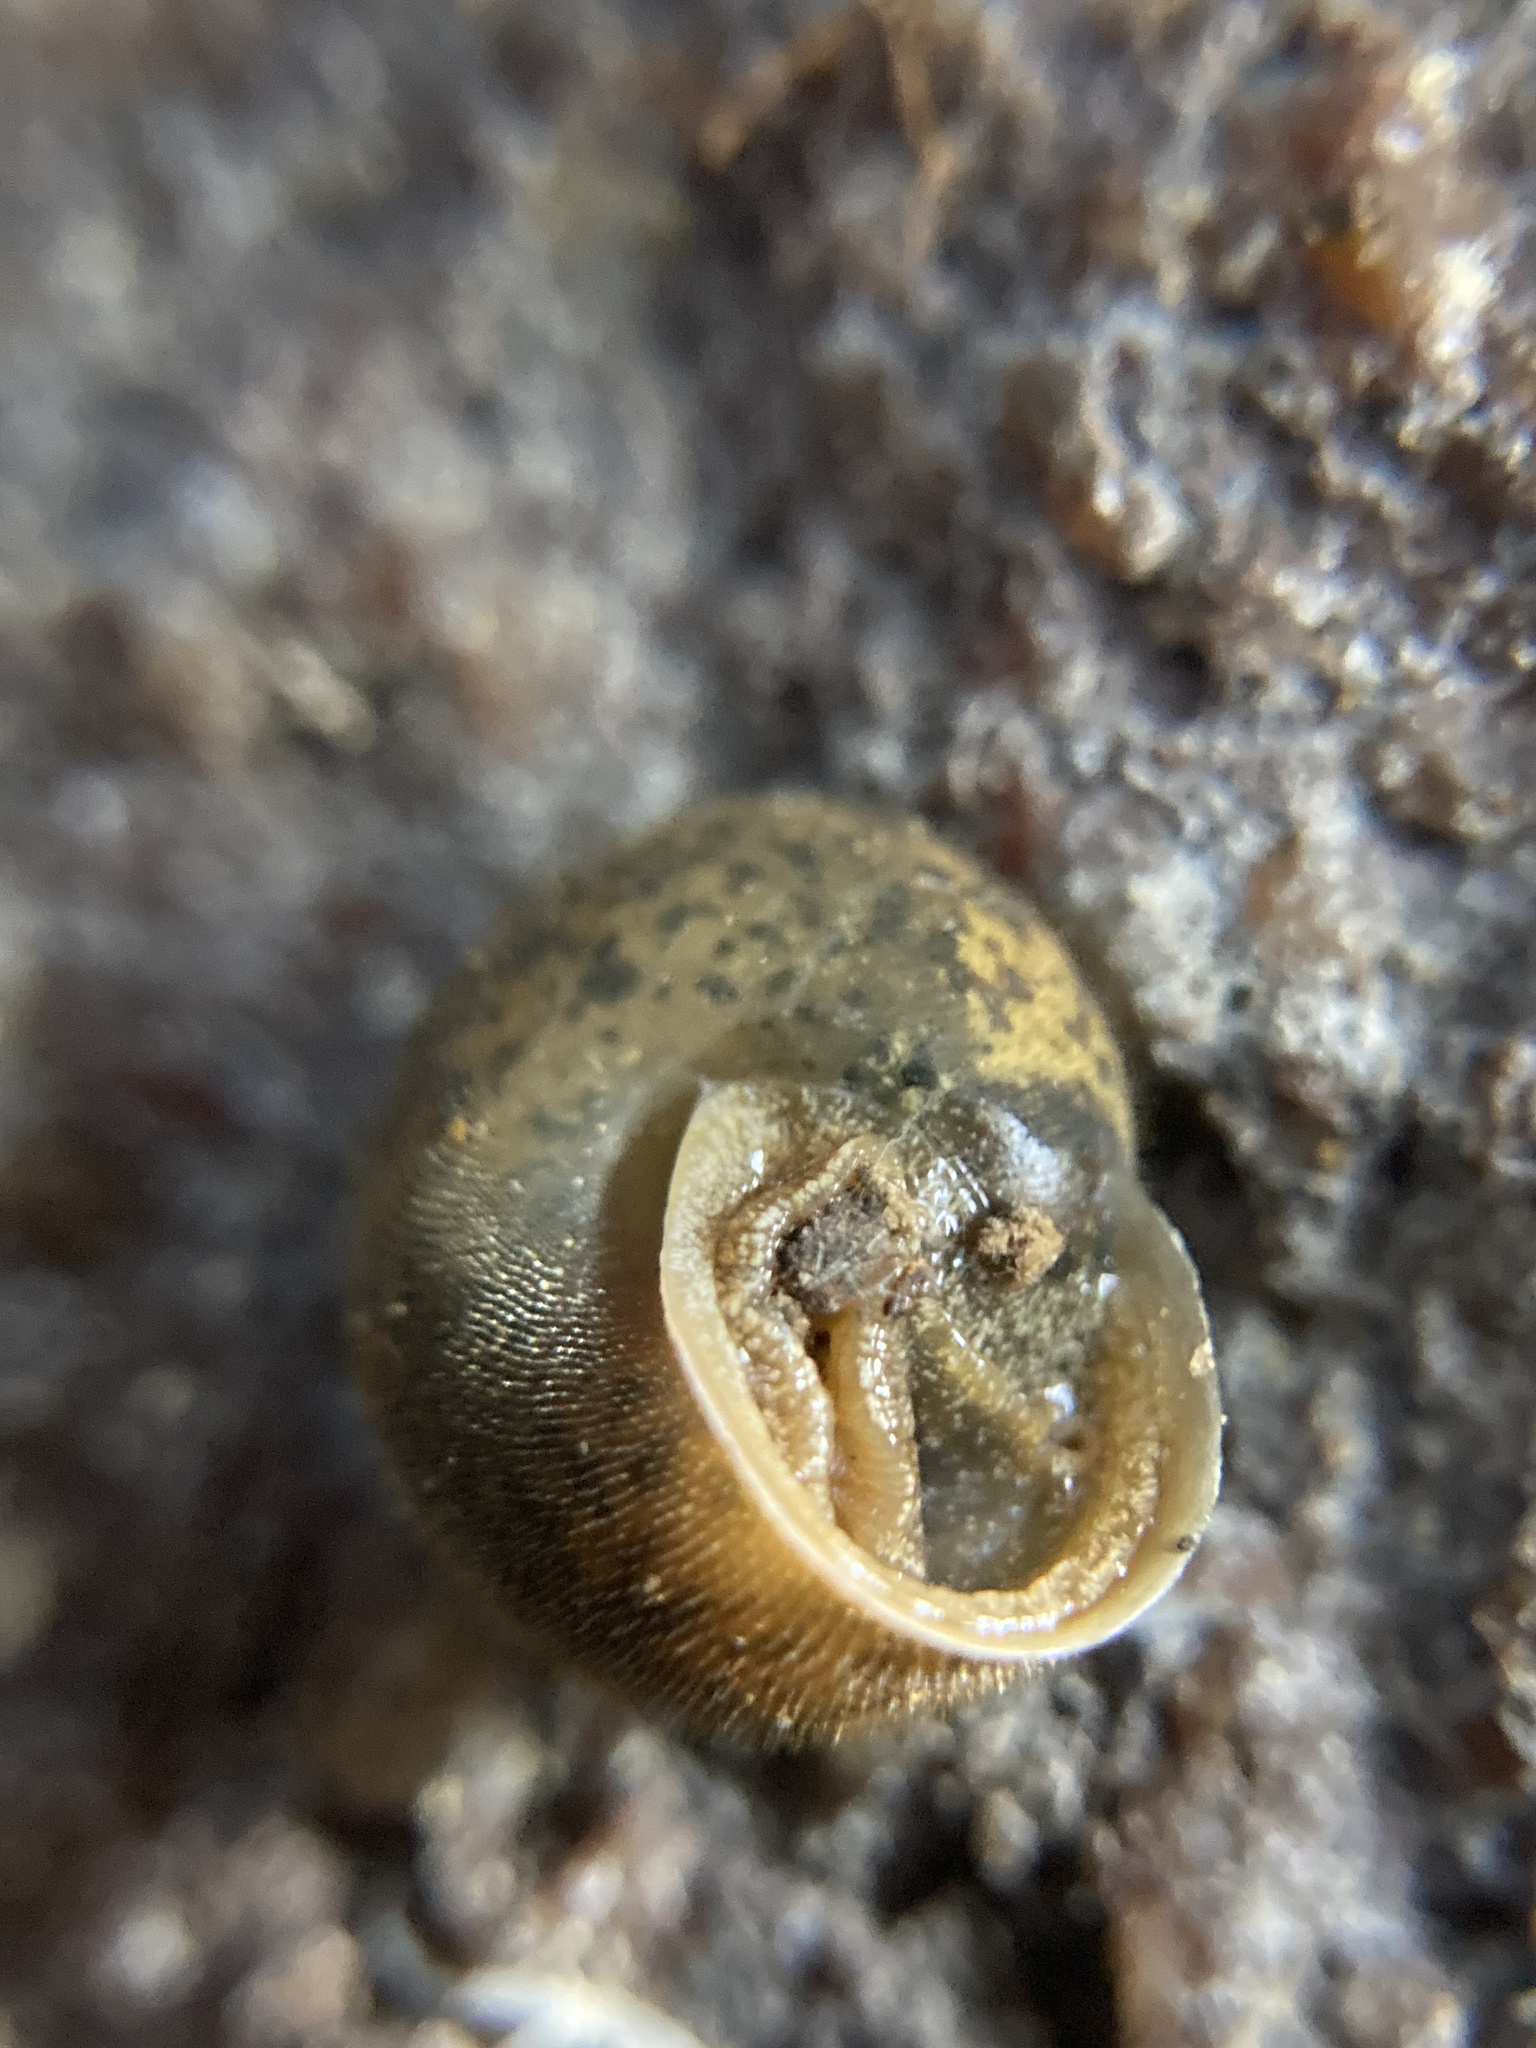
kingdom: Animalia
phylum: Mollusca
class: Gastropoda
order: Stylommatophora
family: Camaenidae
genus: Austrochloritis
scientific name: Austrochloritis metuenda
